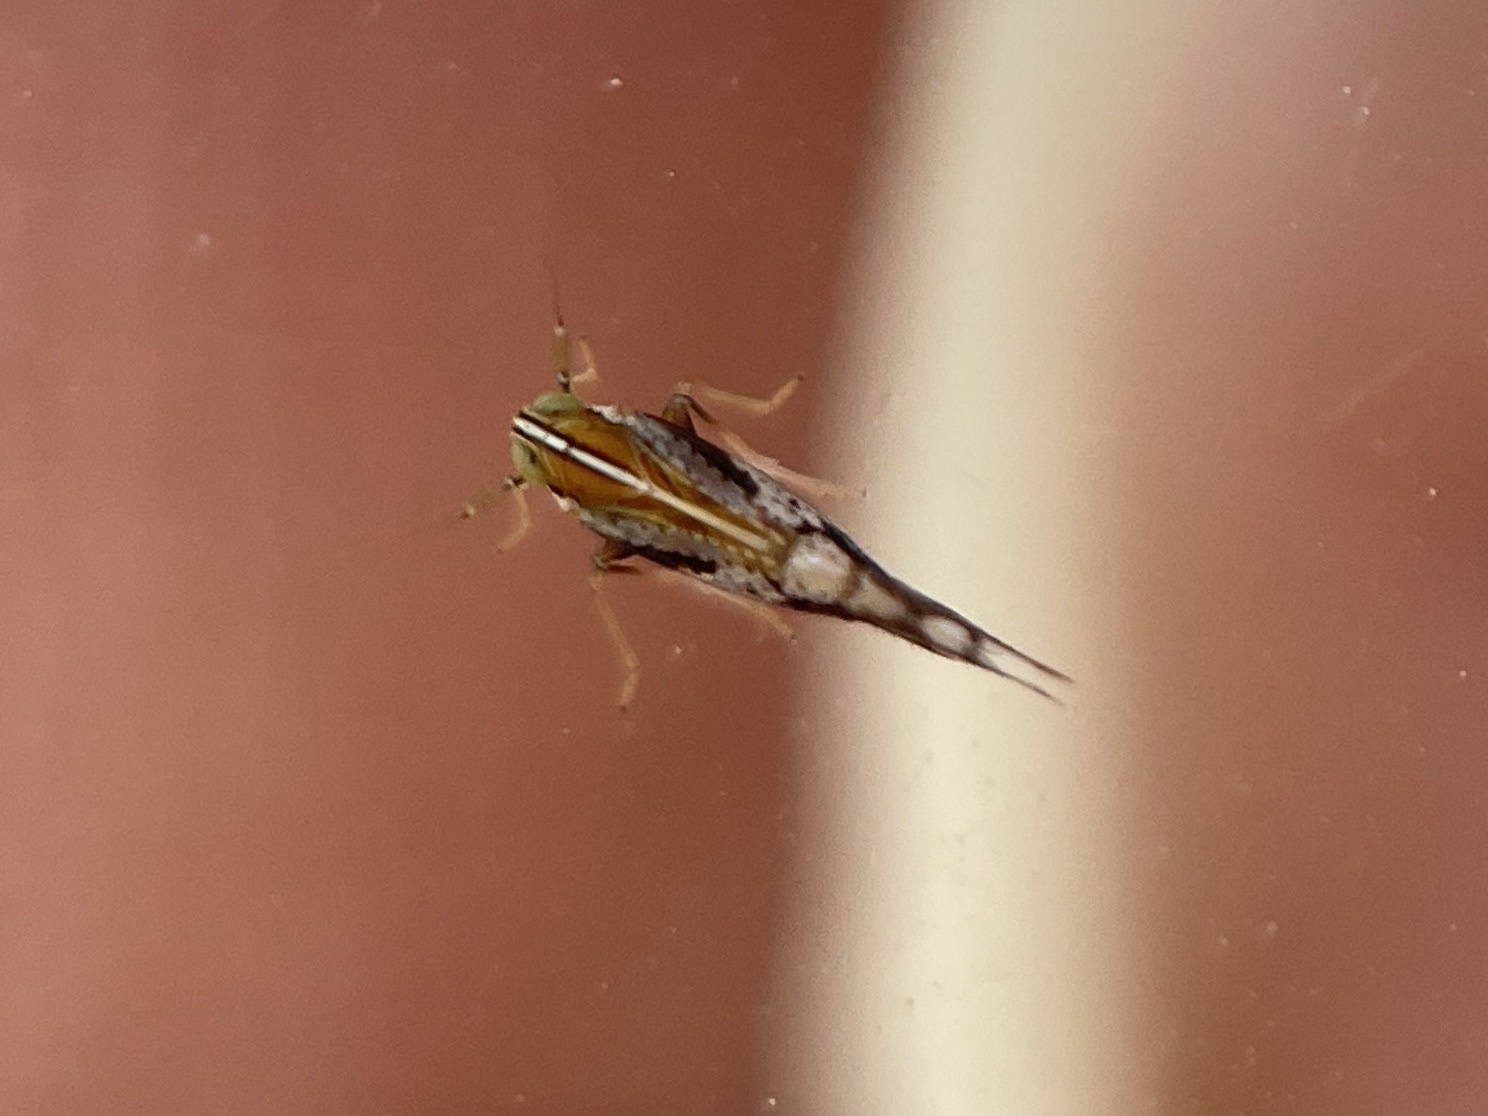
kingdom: Animalia
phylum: Arthropoda
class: Insecta
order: Hemiptera
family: Delphacidae
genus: Liburniella
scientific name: Liburniella ornata
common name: Ornate planthopper
